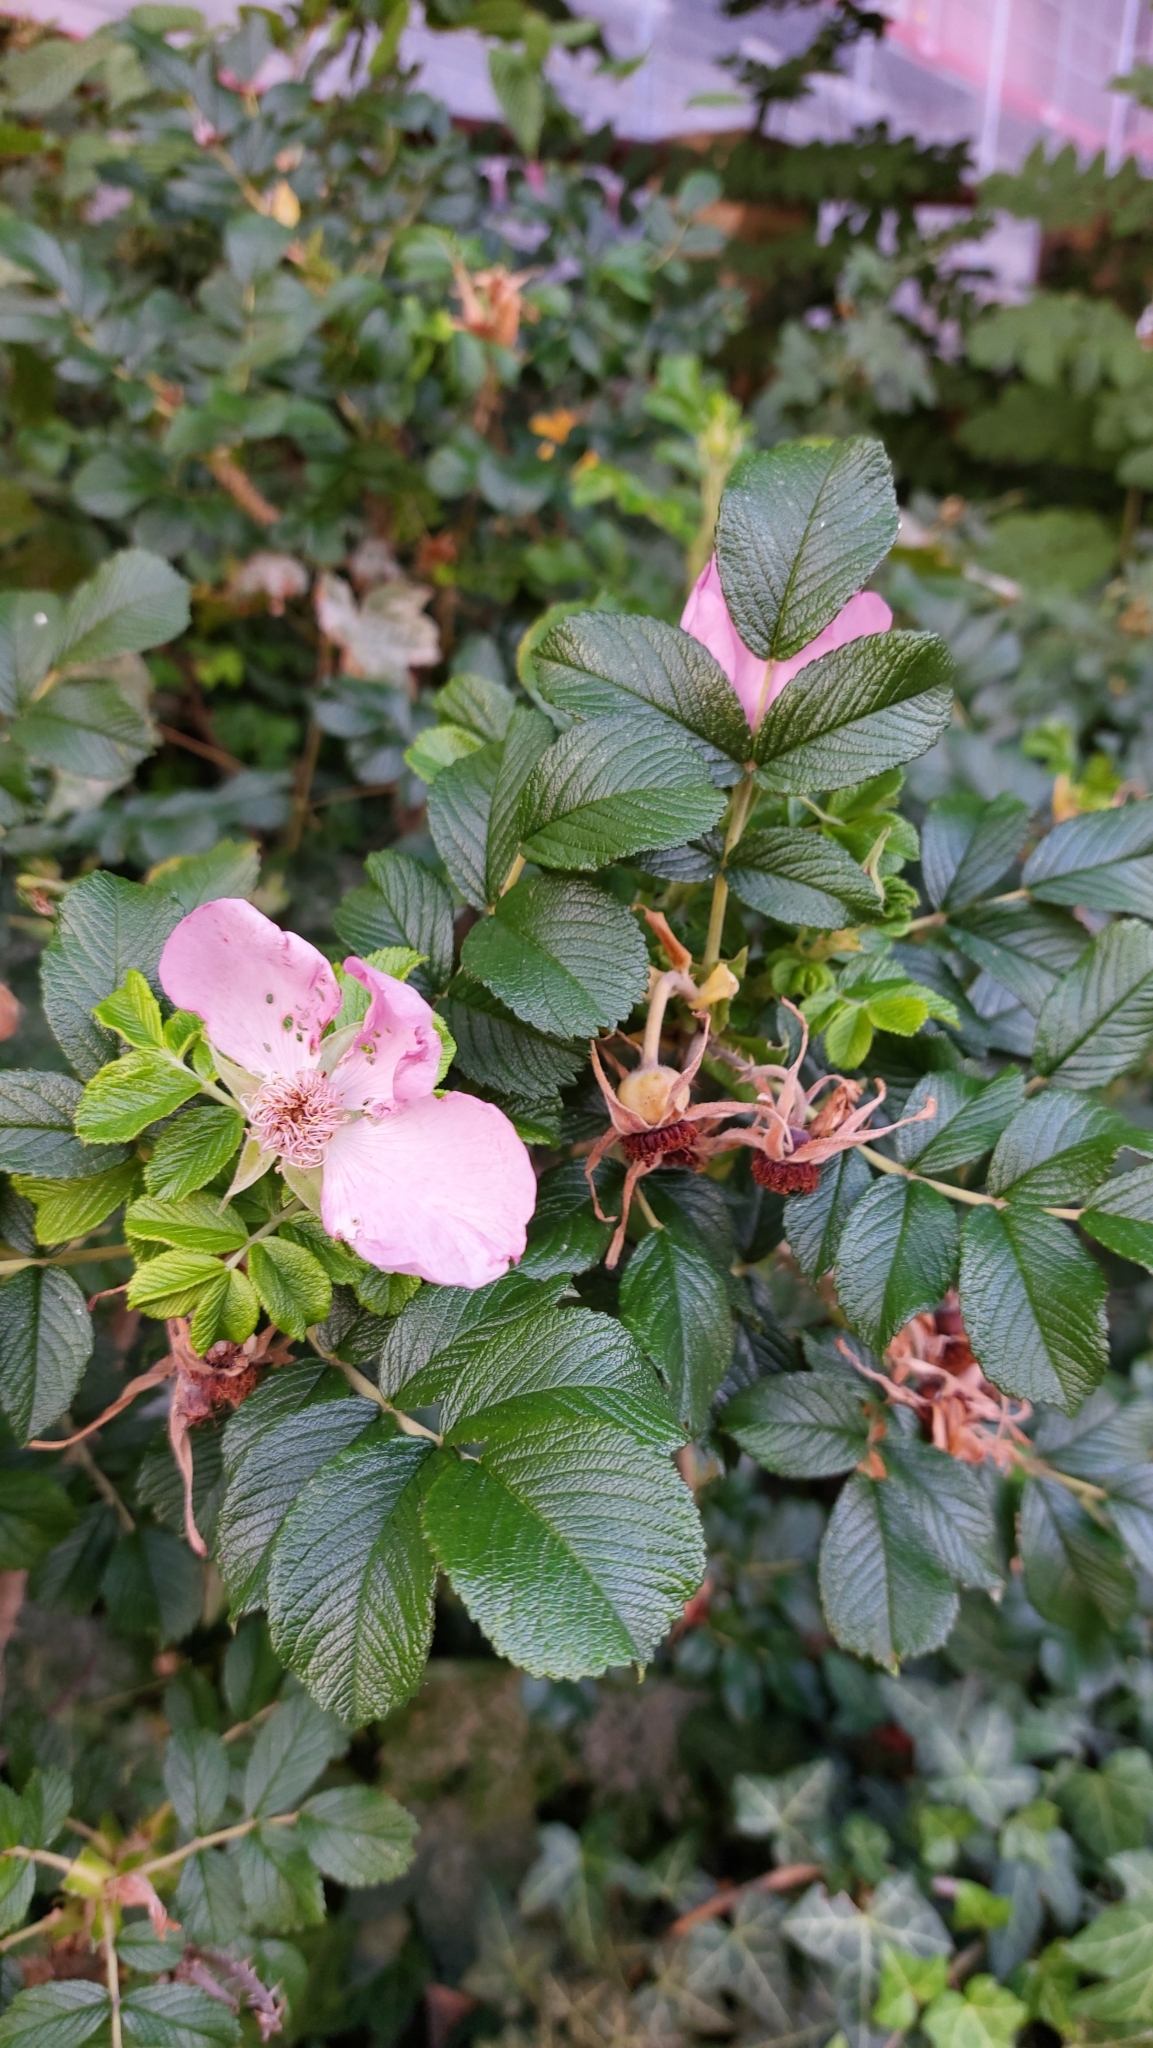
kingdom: Plantae
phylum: Tracheophyta
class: Magnoliopsida
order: Rosales
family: Rosaceae
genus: Rosa
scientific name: Rosa rugosa
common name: Japanese rose
